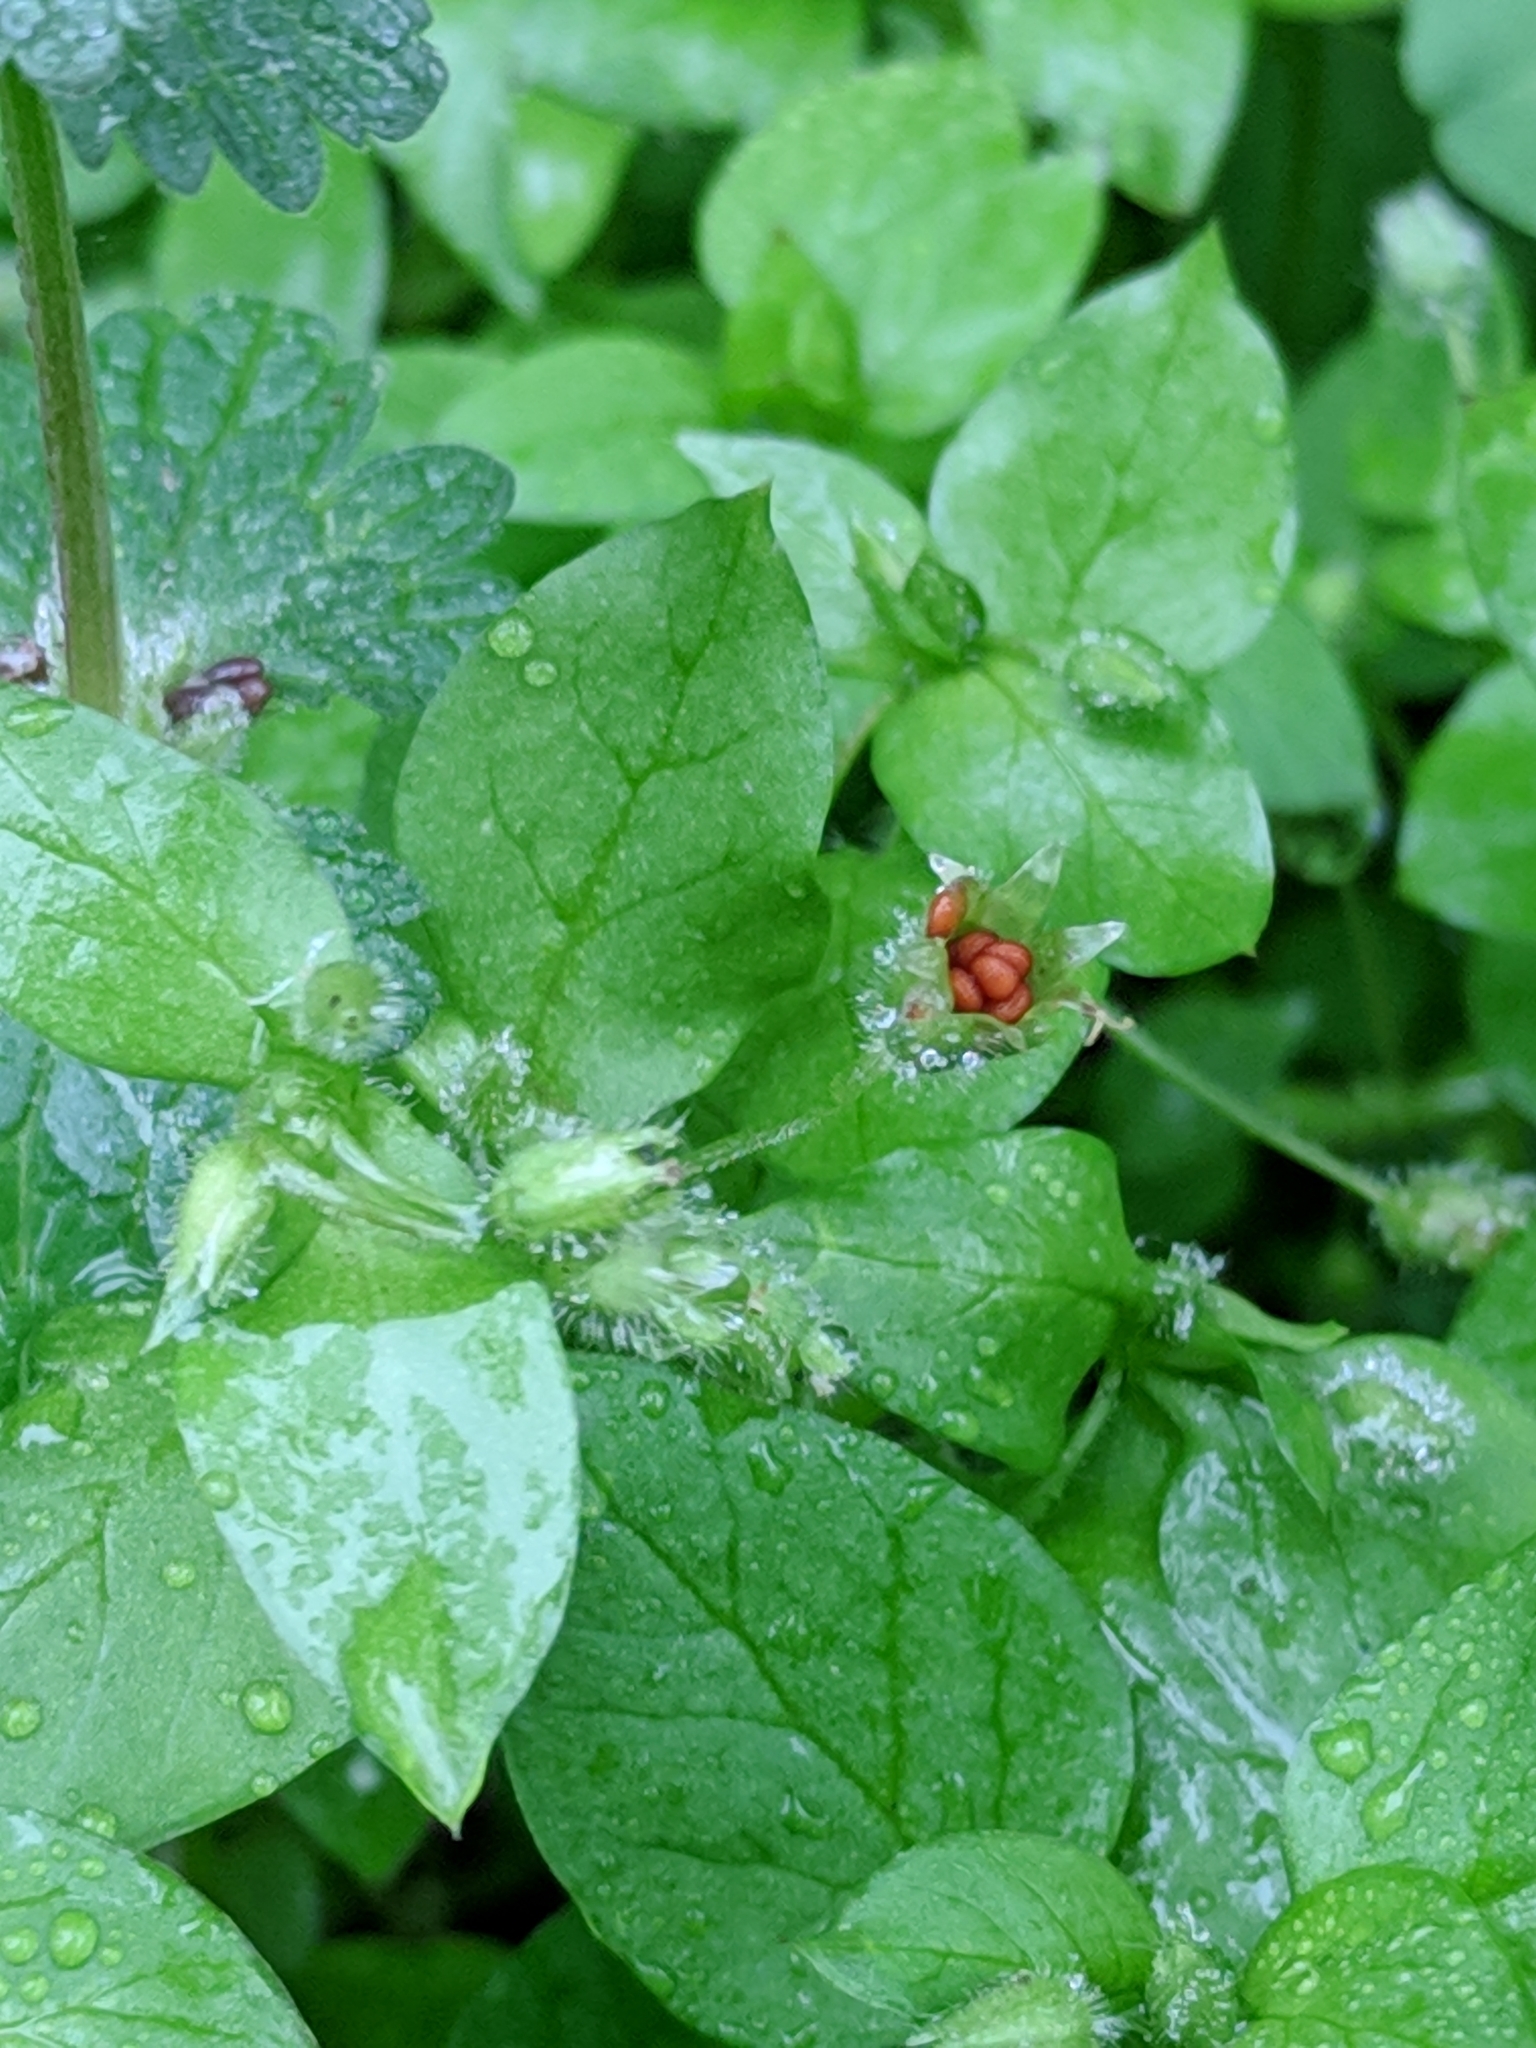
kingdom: Plantae
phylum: Tracheophyta
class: Magnoliopsida
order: Caryophyllales
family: Caryophyllaceae
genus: Stellaria
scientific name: Stellaria media
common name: Common chickweed
